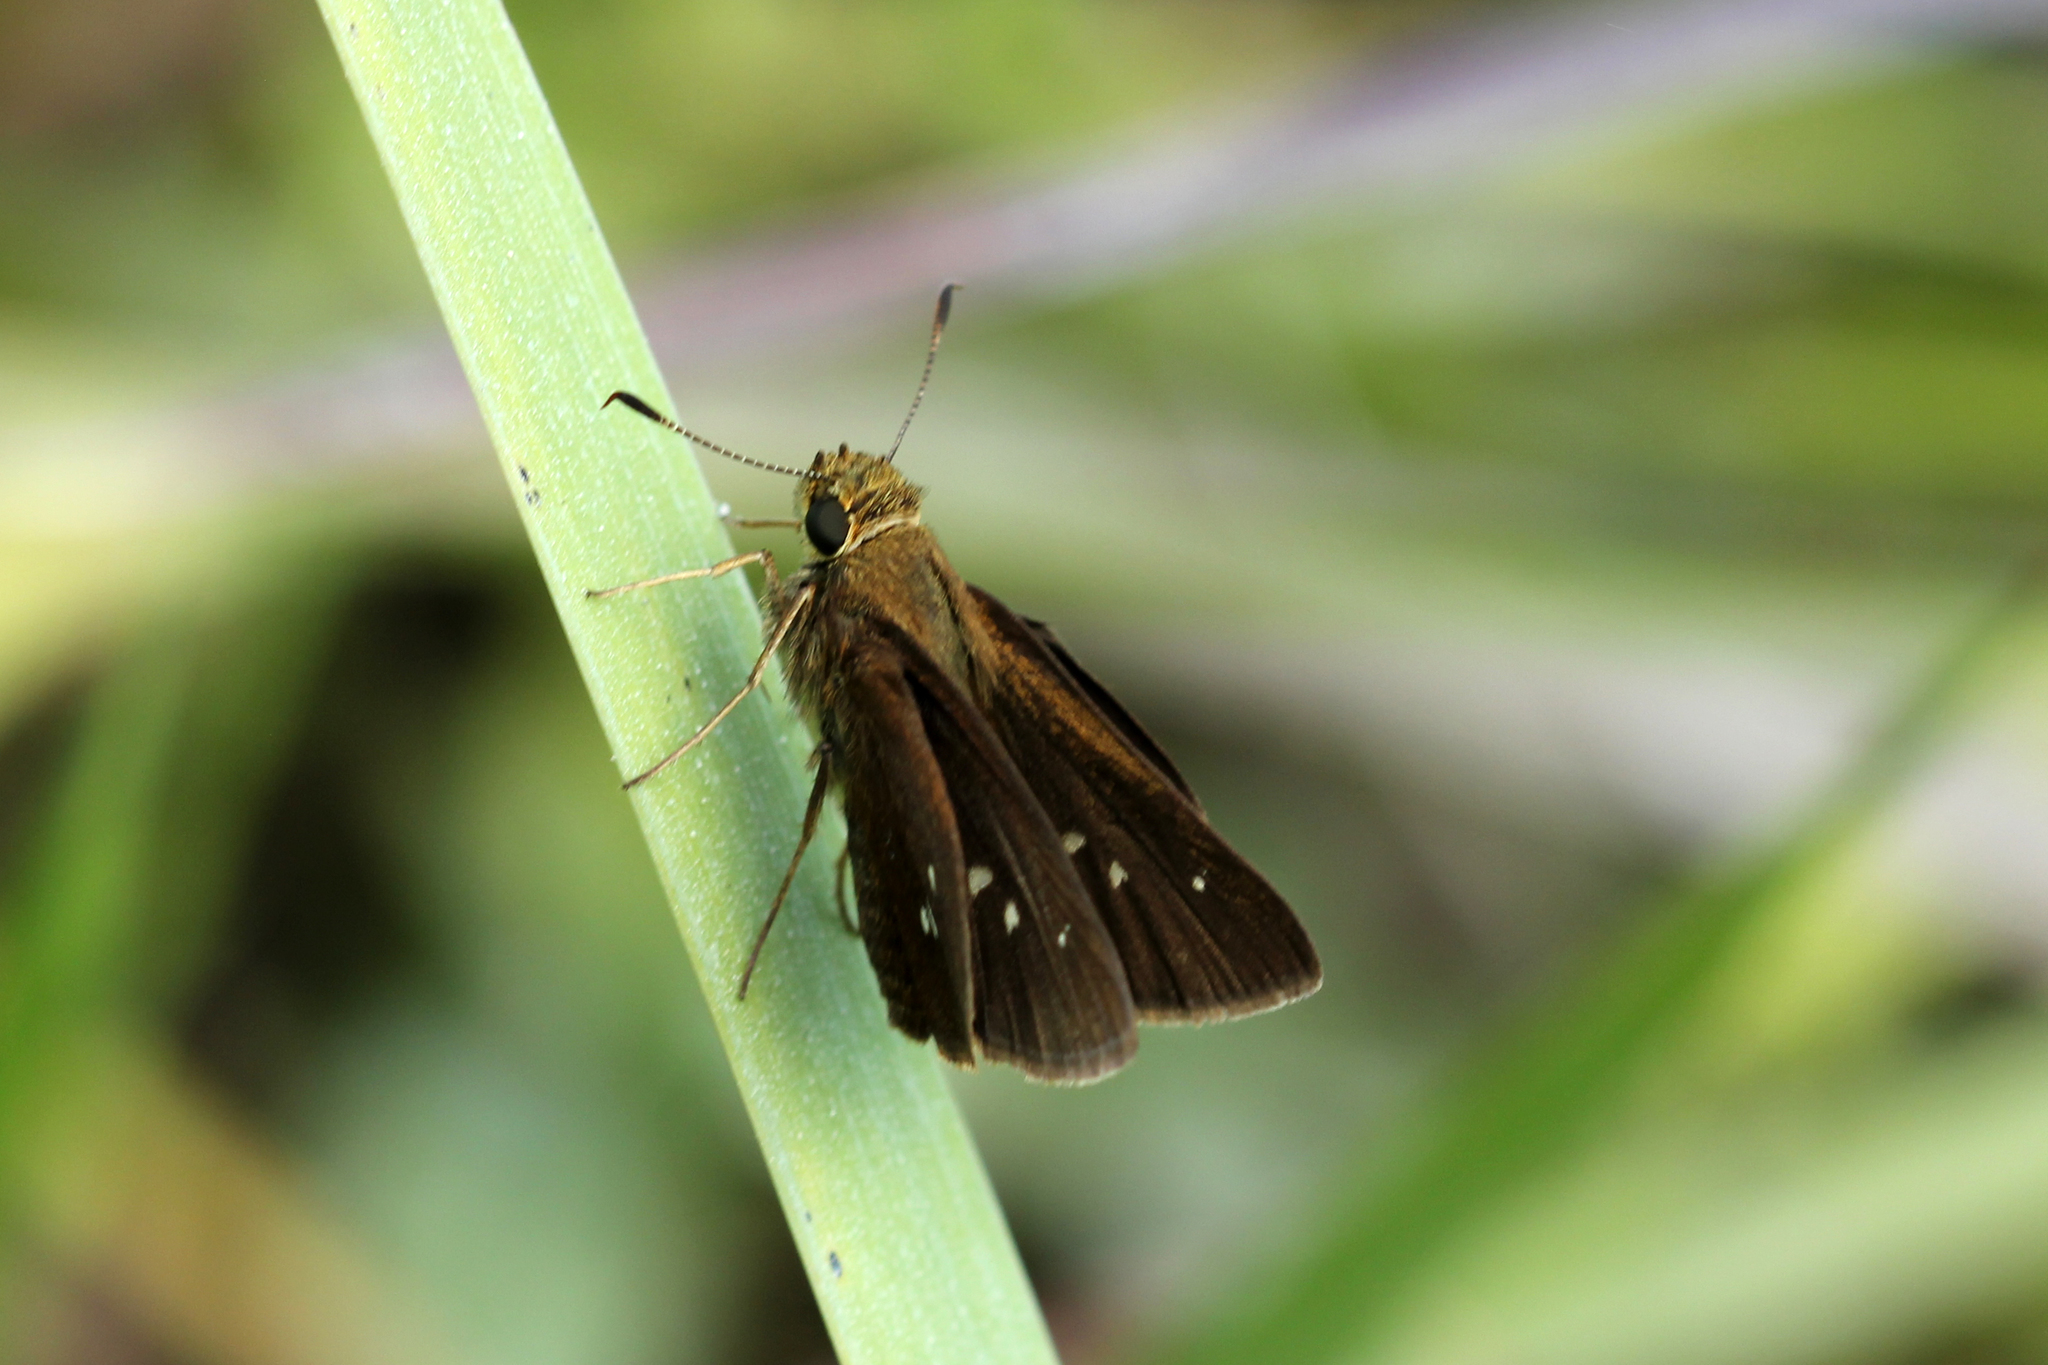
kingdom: Animalia
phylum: Arthropoda
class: Insecta
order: Lepidoptera
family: Hesperiidae
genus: Oligoria
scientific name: Oligoria maculata
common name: Twin-spot skipper
